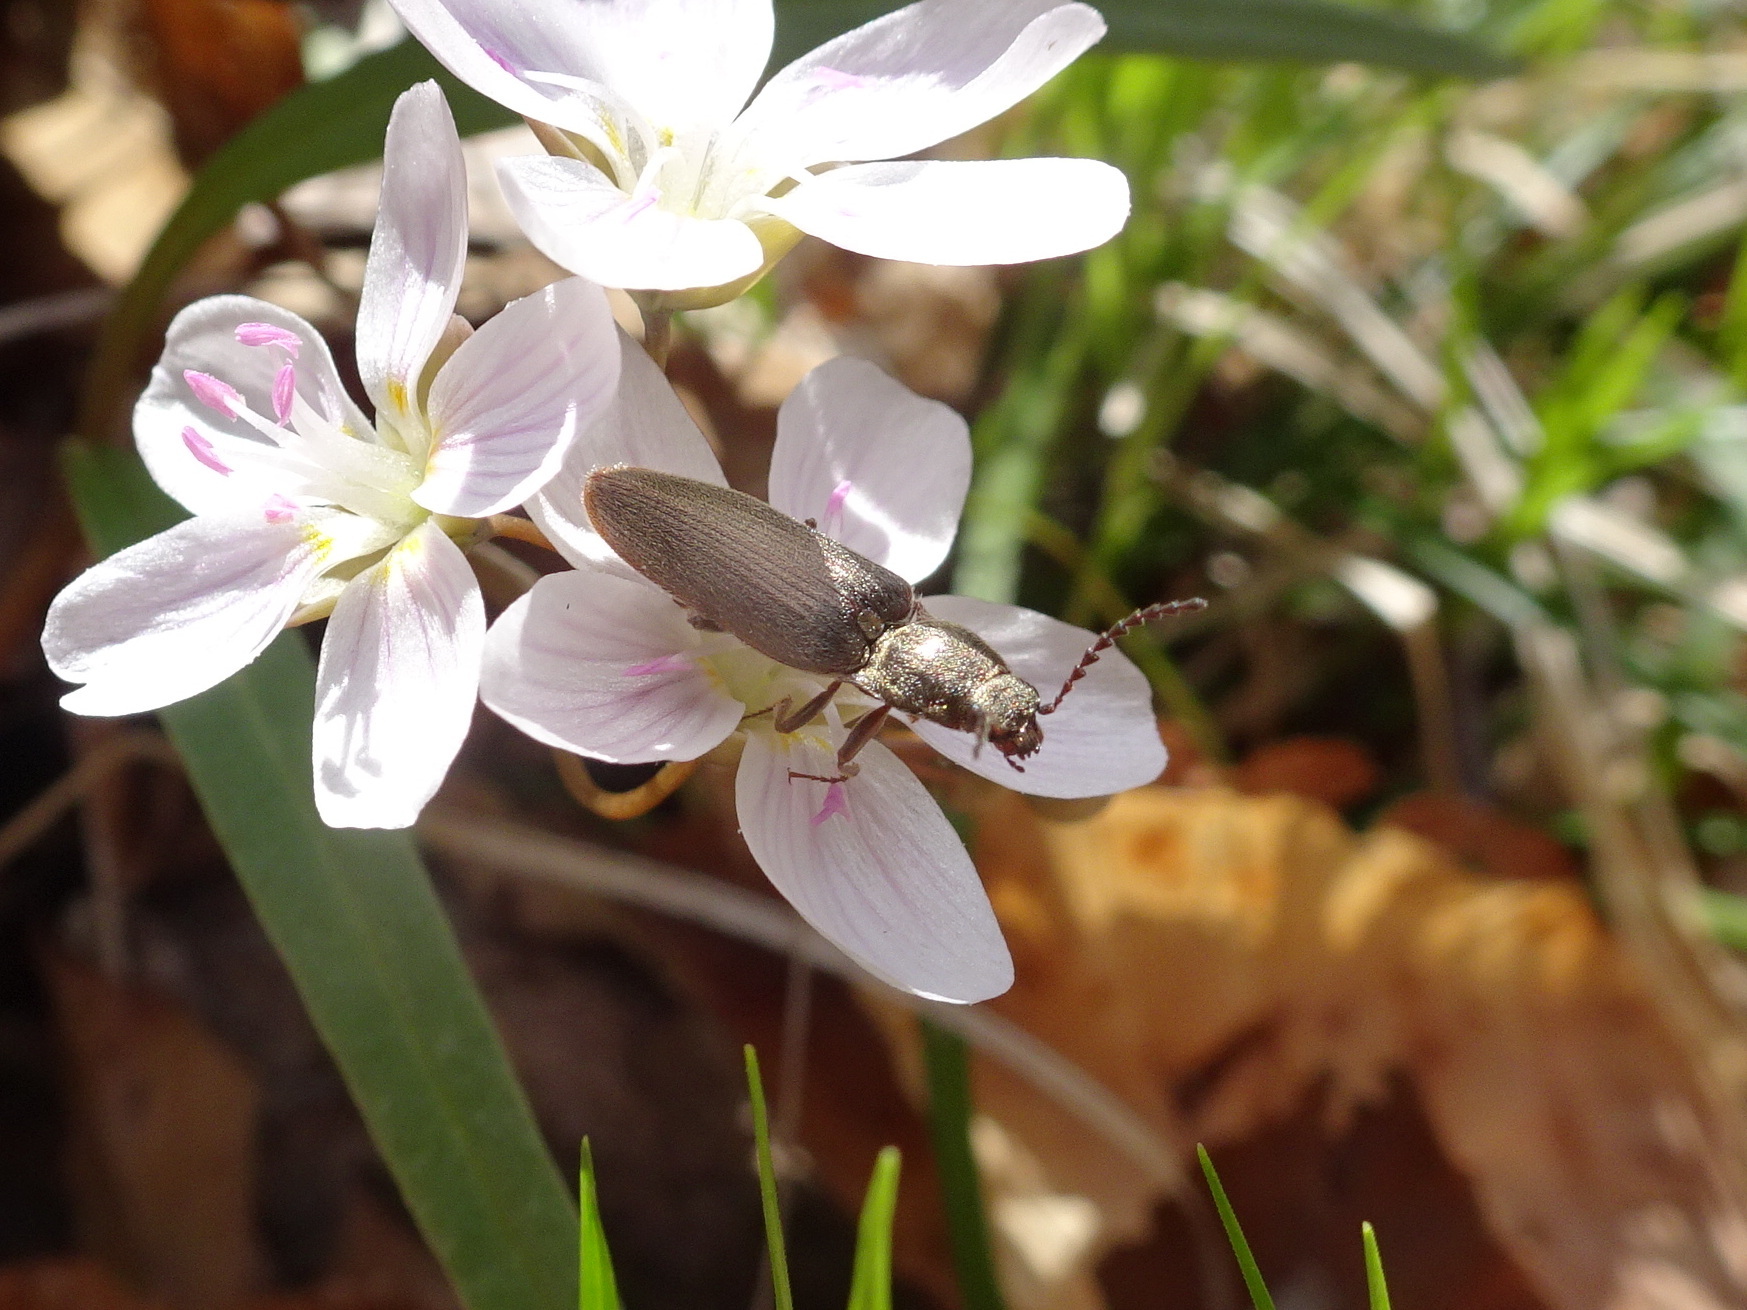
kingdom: Animalia
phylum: Arthropoda
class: Insecta
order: Coleoptera
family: Elateridae
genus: Sylvanelater
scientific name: Sylvanelater cylindriformis
